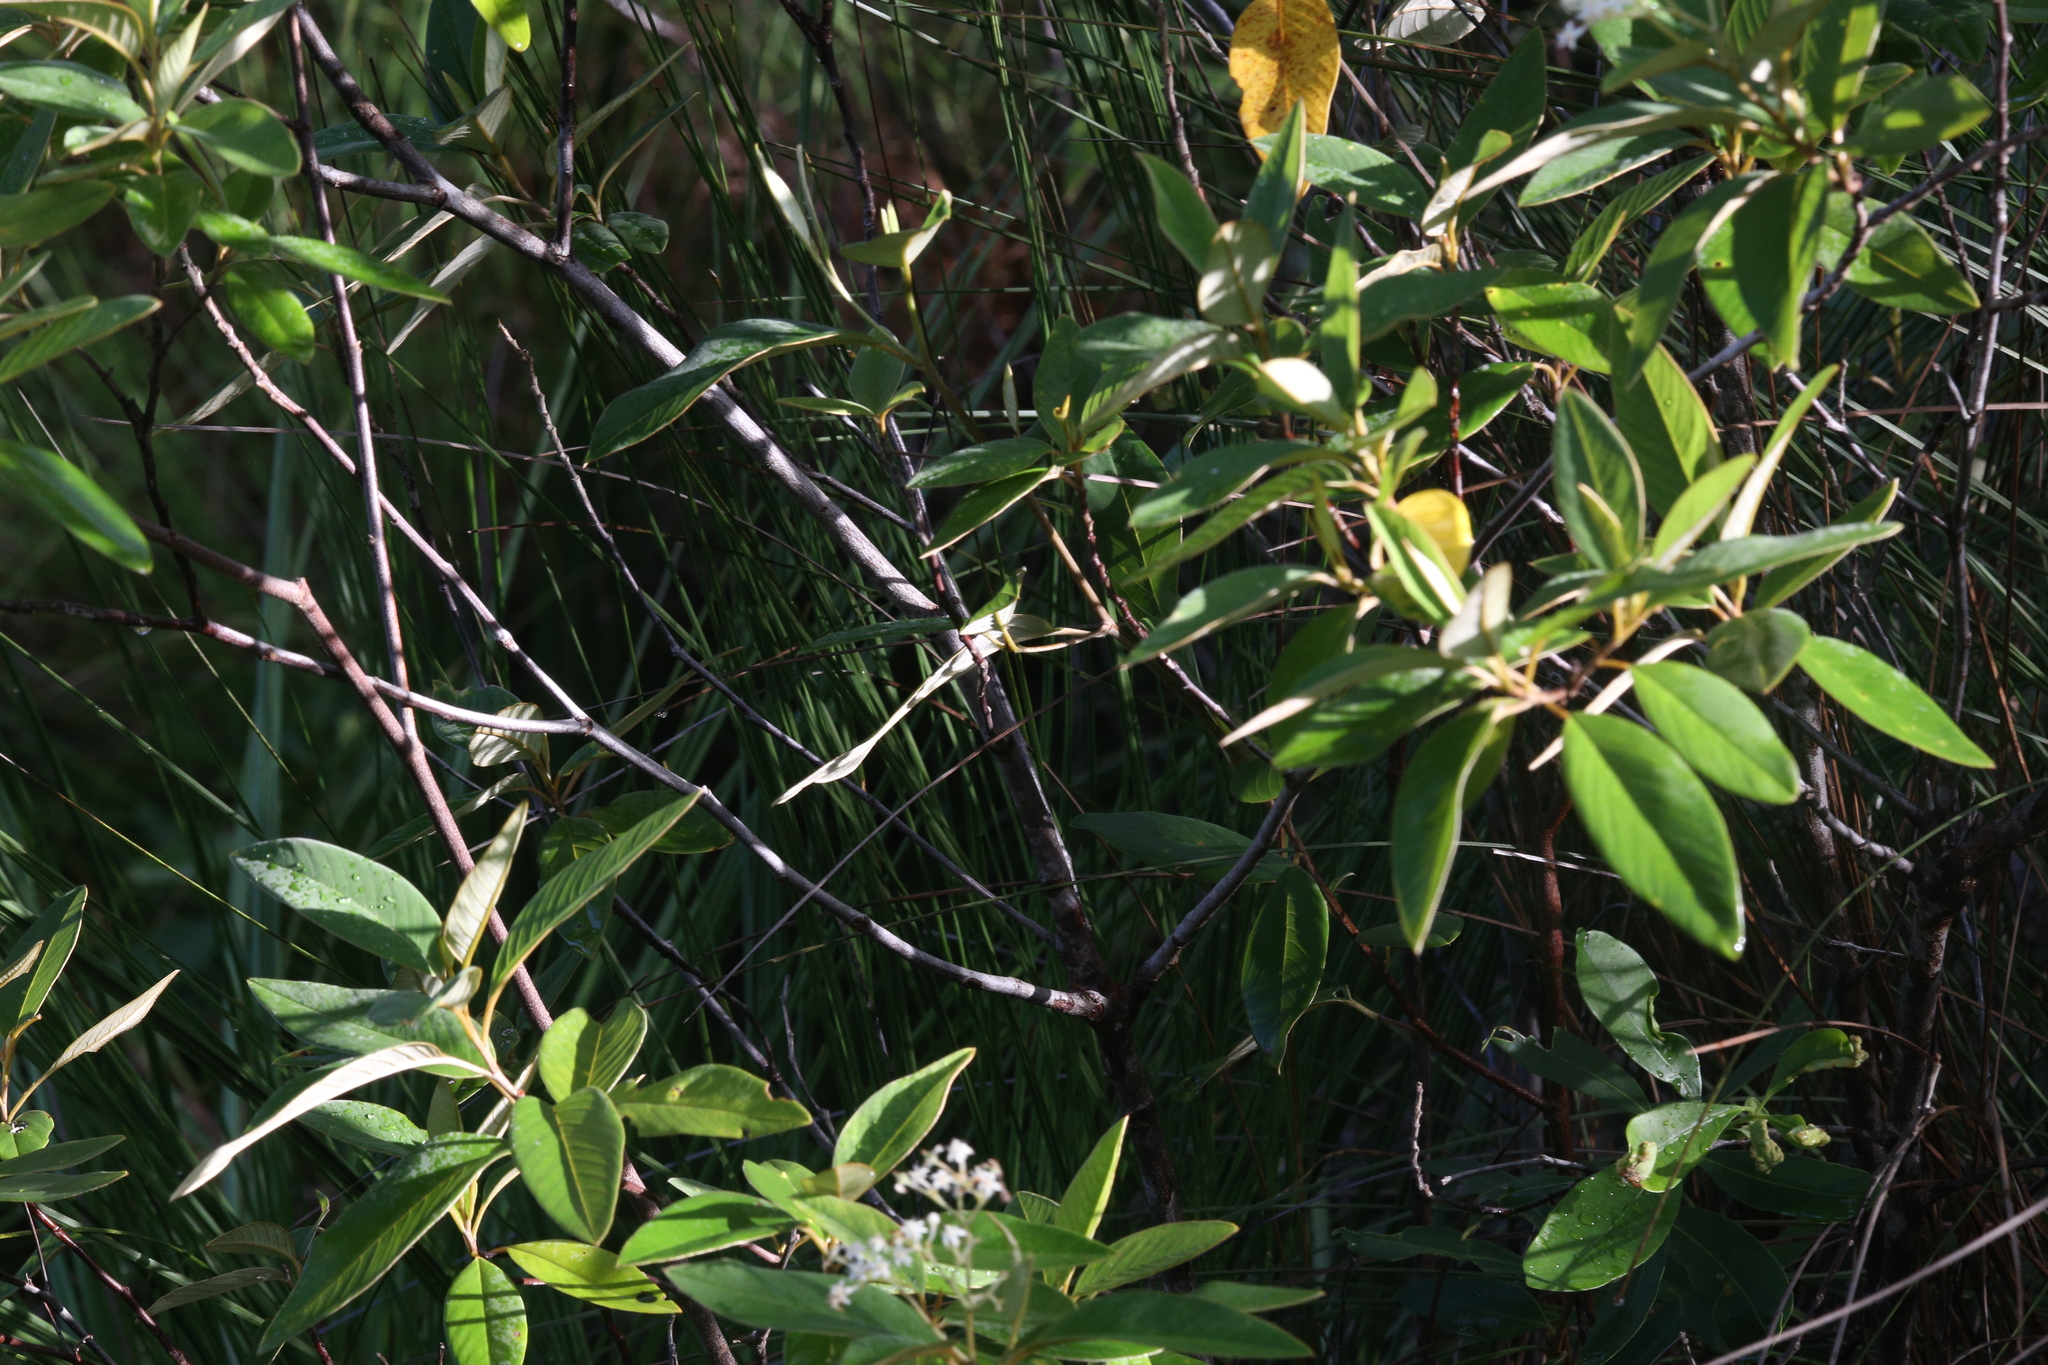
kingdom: Plantae
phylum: Tracheophyta
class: Magnoliopsida
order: Rosales
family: Rhamnaceae
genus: Pomaderris
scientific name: Pomaderris tropica
